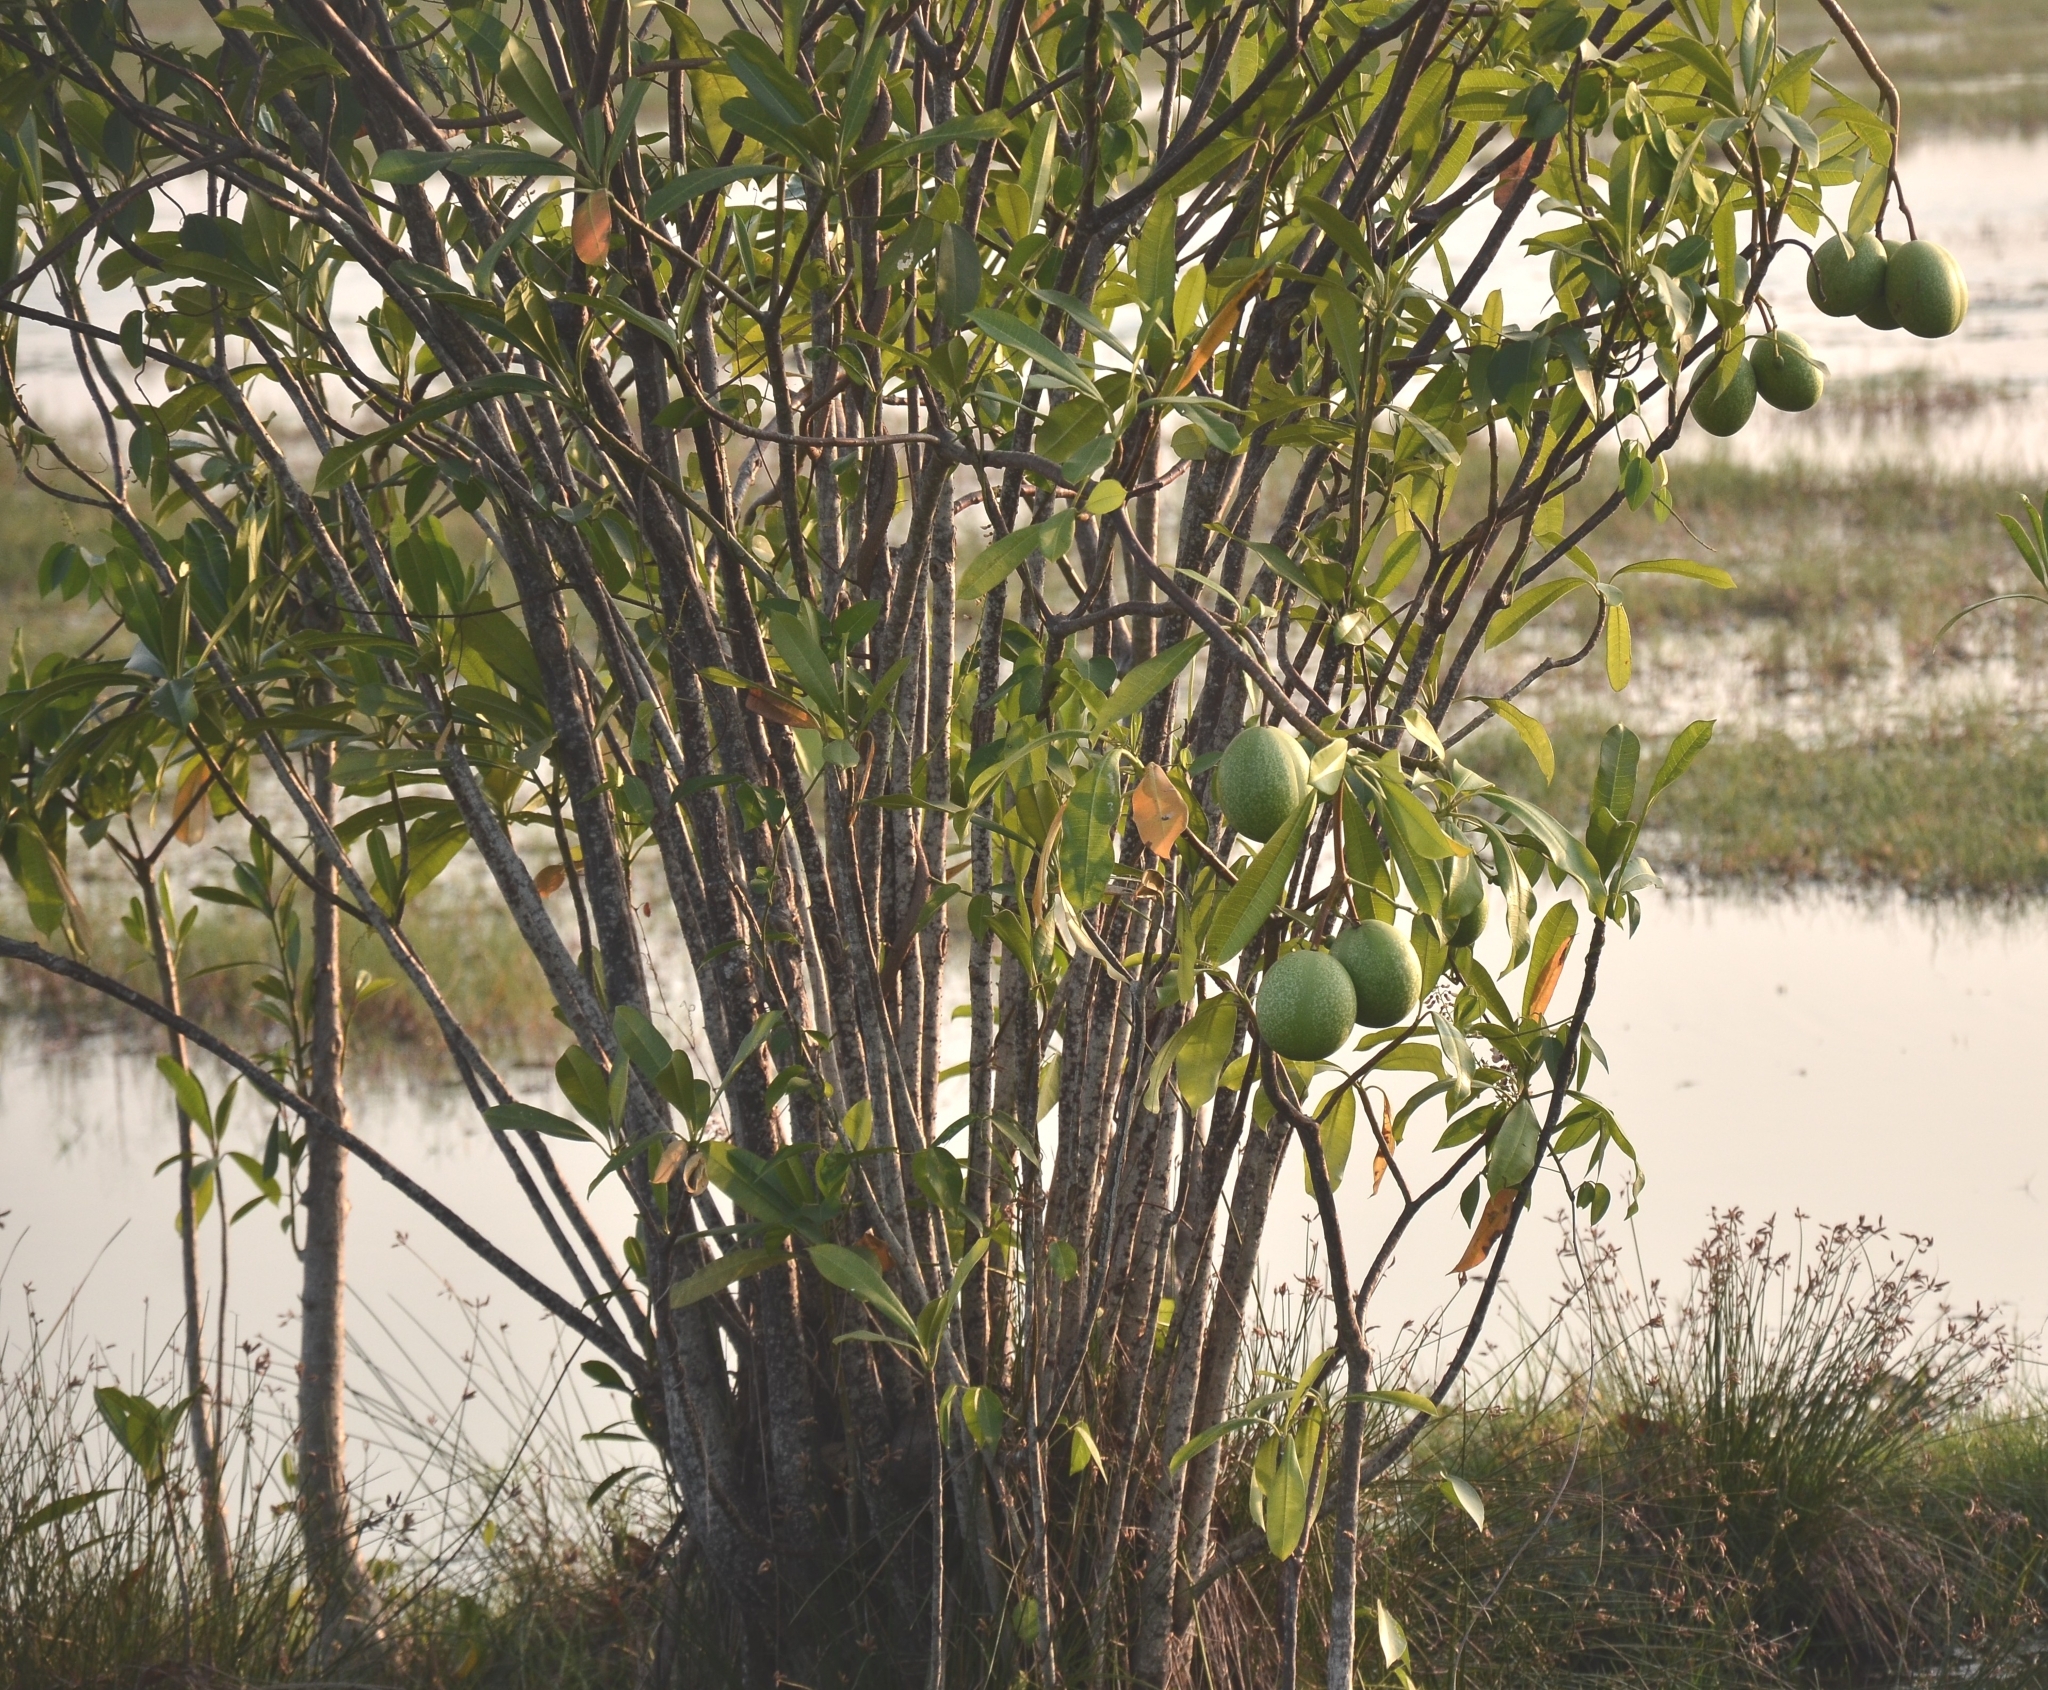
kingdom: Plantae
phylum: Tracheophyta
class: Magnoliopsida
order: Gentianales
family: Apocynaceae
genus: Cerbera
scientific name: Cerbera odollam
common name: Pong-pong
